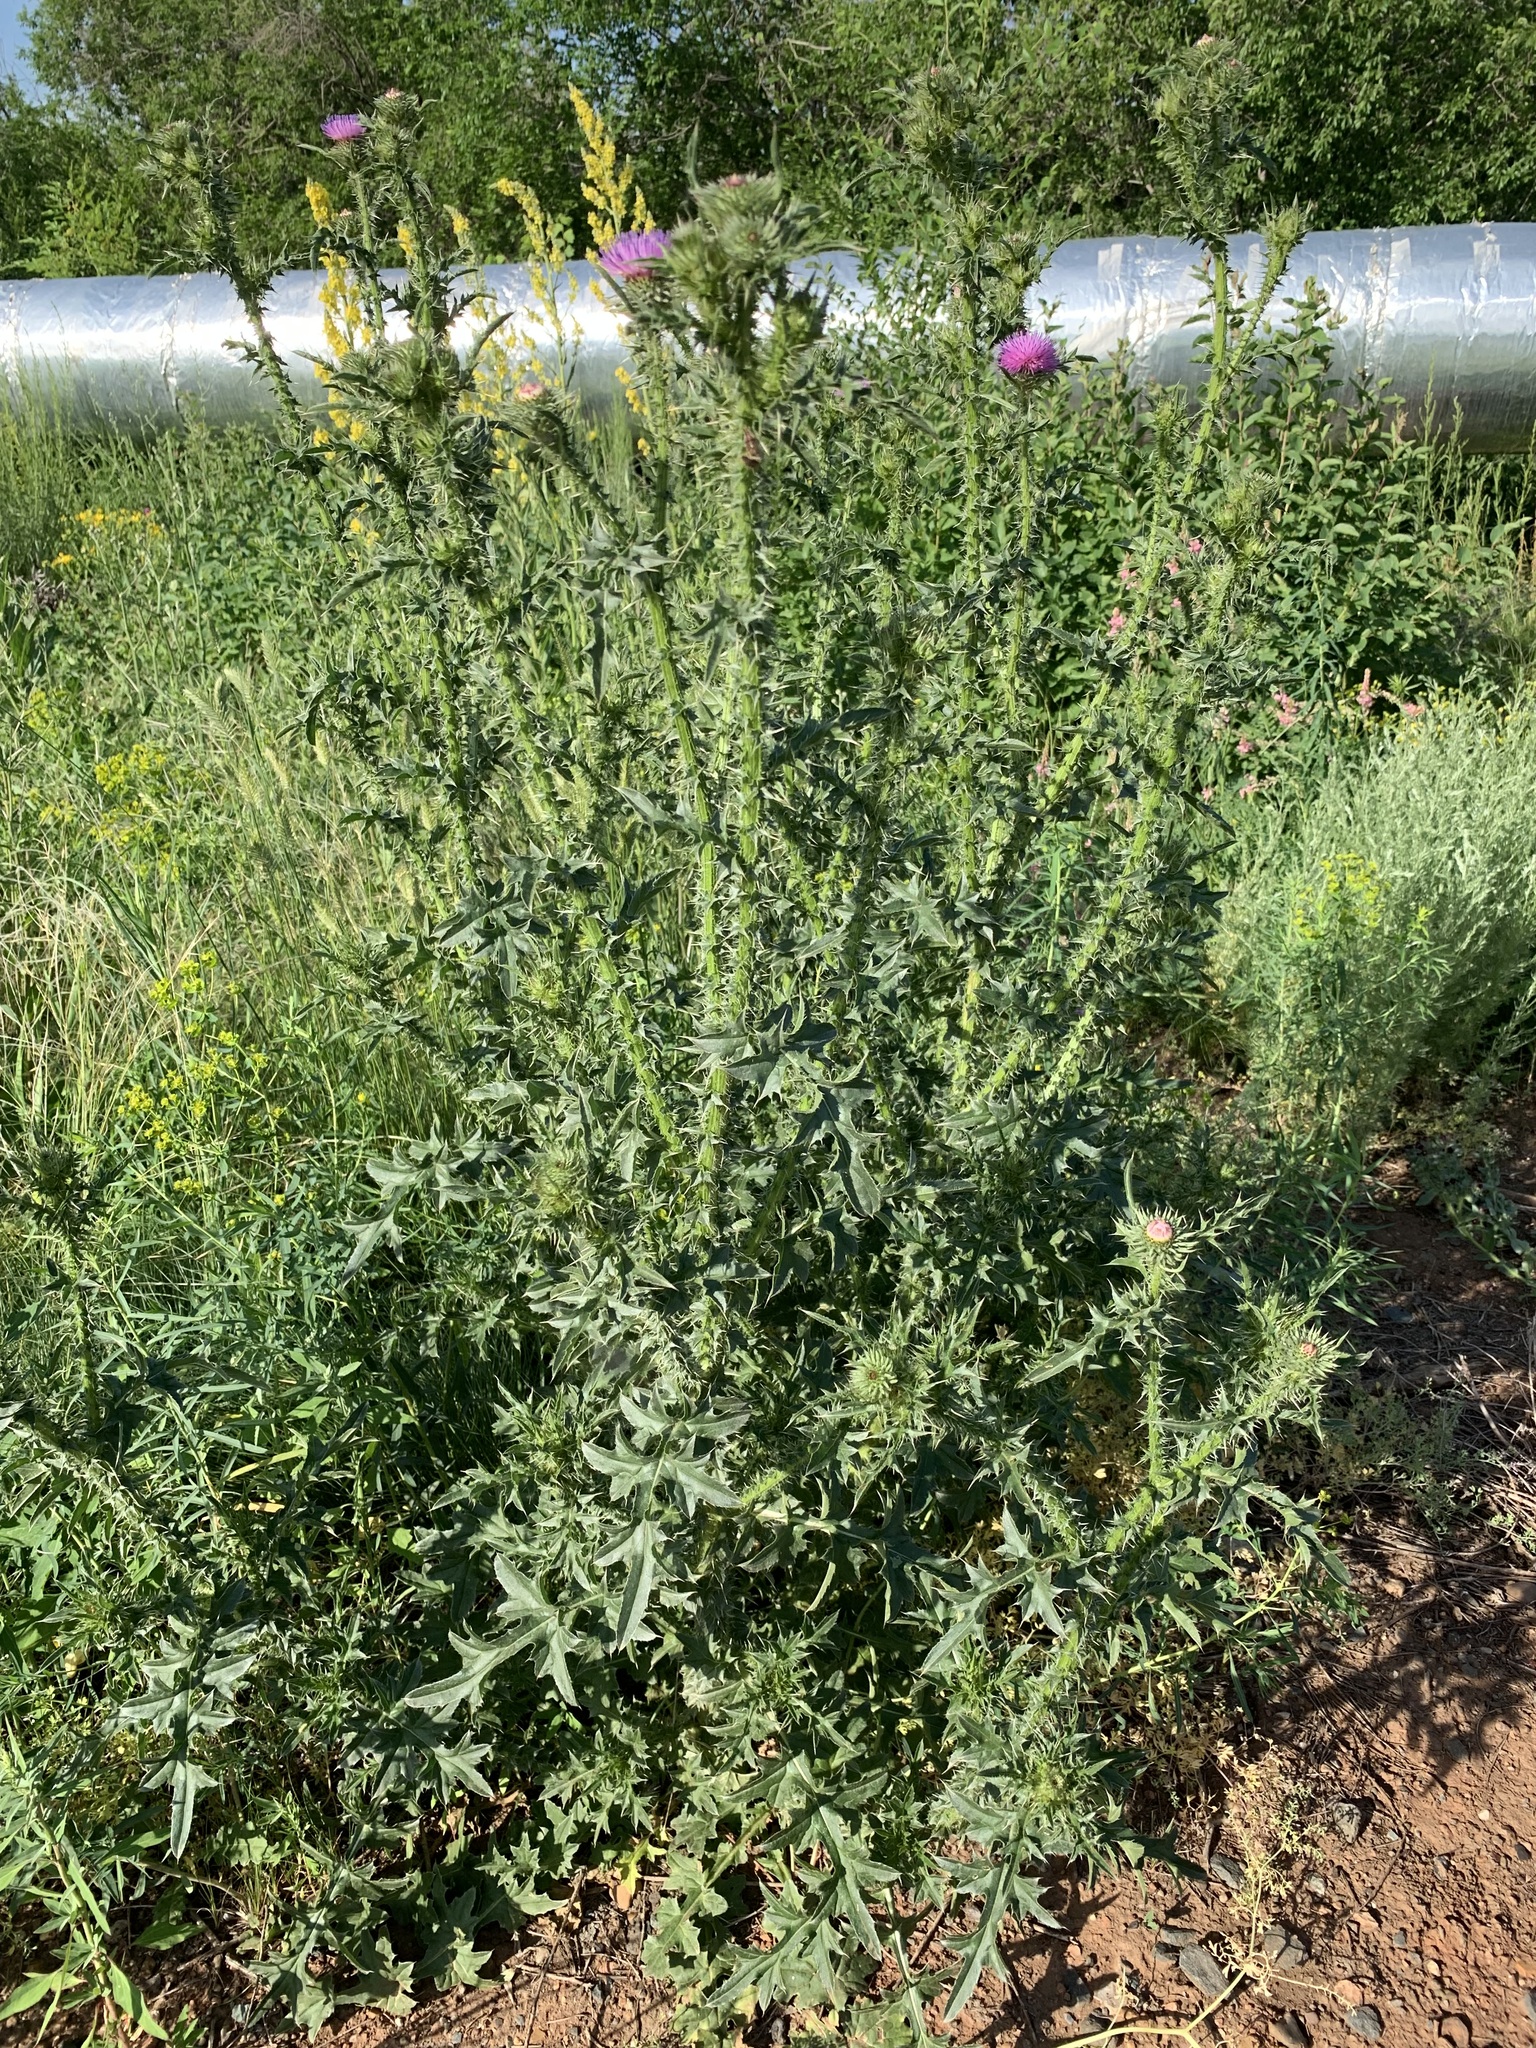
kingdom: Plantae
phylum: Tracheophyta
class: Magnoliopsida
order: Asterales
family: Asteraceae
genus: Carduus
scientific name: Carduus acanthoides
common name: Plumeless thistle
